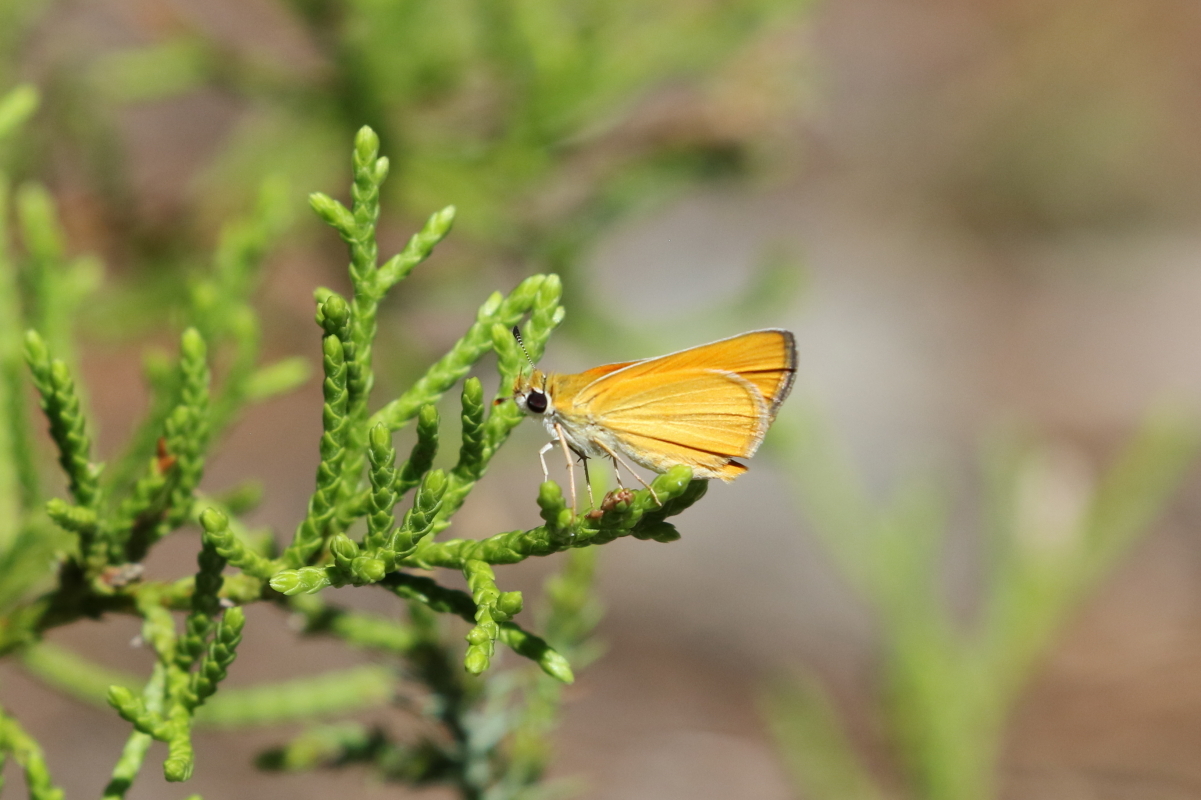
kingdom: Animalia
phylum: Arthropoda
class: Insecta
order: Lepidoptera
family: Hesperiidae
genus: Copaeodes
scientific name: Copaeodes aurantiaca
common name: Orange skipperling
